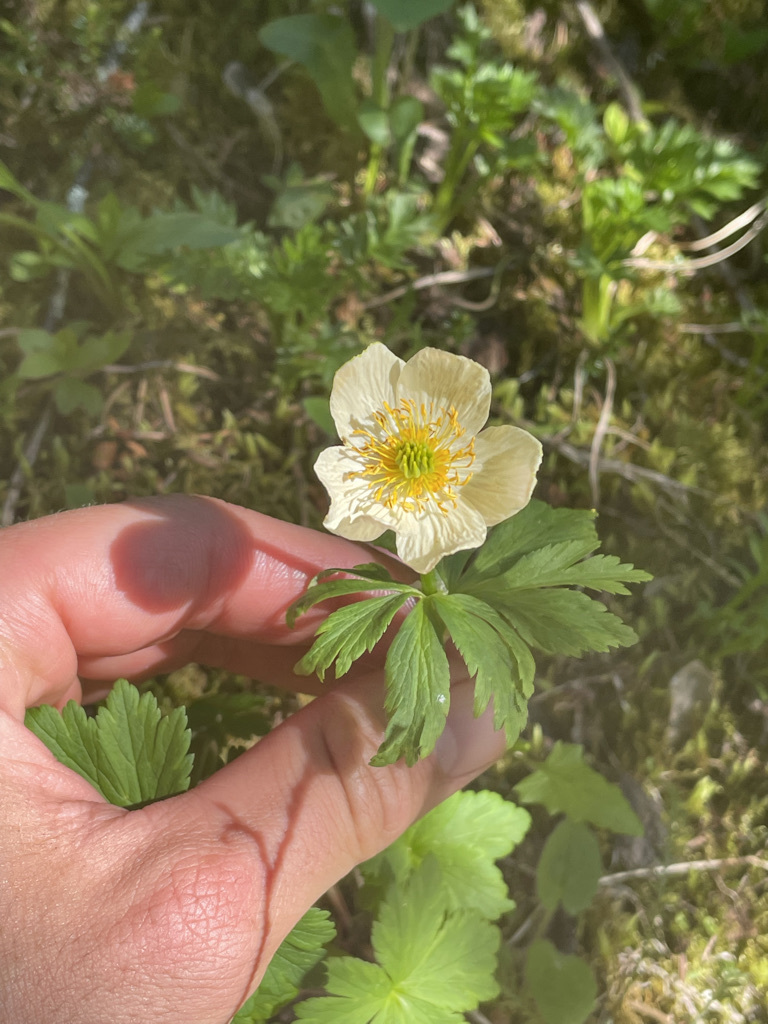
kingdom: Plantae
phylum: Tracheophyta
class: Magnoliopsida
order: Ranunculales
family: Ranunculaceae
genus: Trollius
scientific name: Trollius laxus
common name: American globeflower
